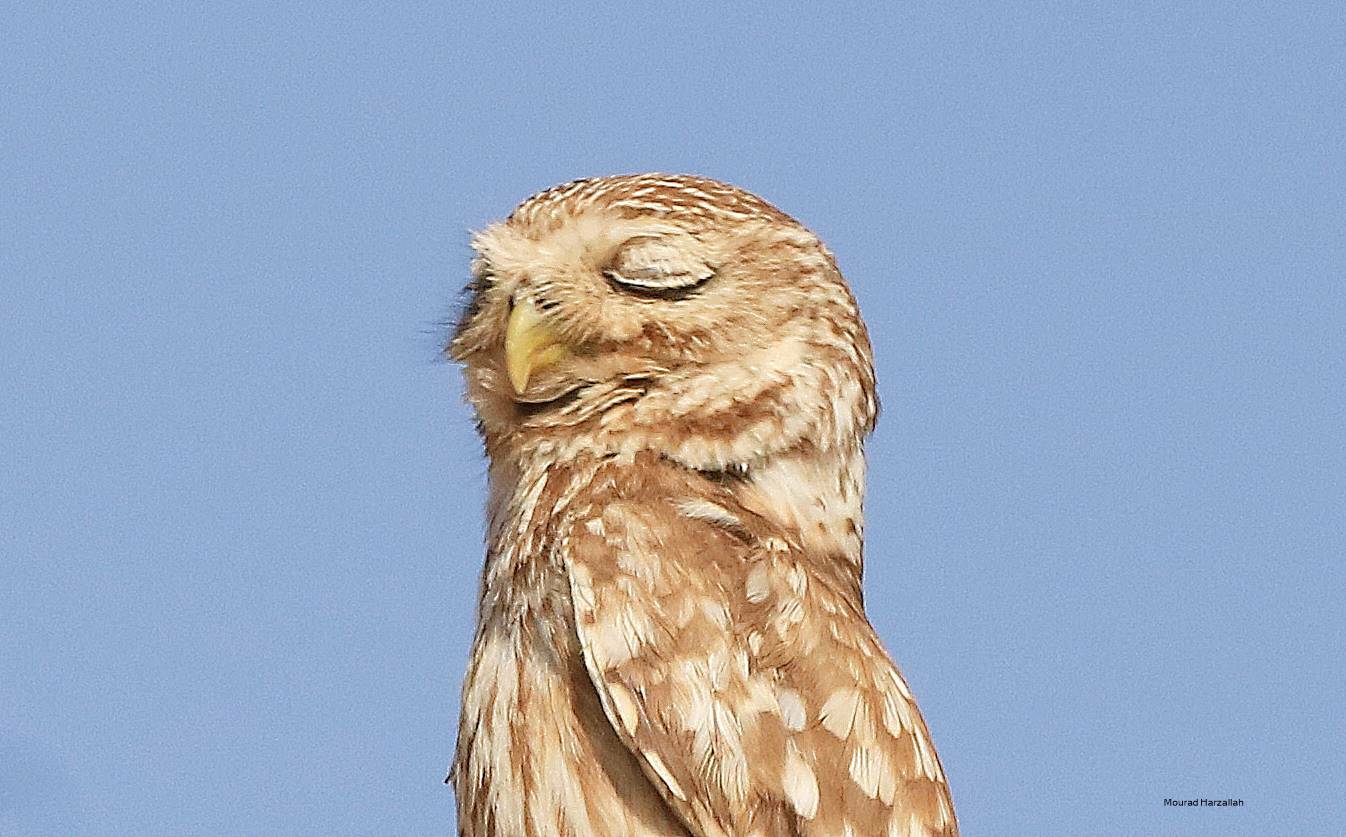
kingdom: Animalia
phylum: Chordata
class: Aves
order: Strigiformes
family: Strigidae
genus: Athene
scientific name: Athene noctua
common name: Little owl
